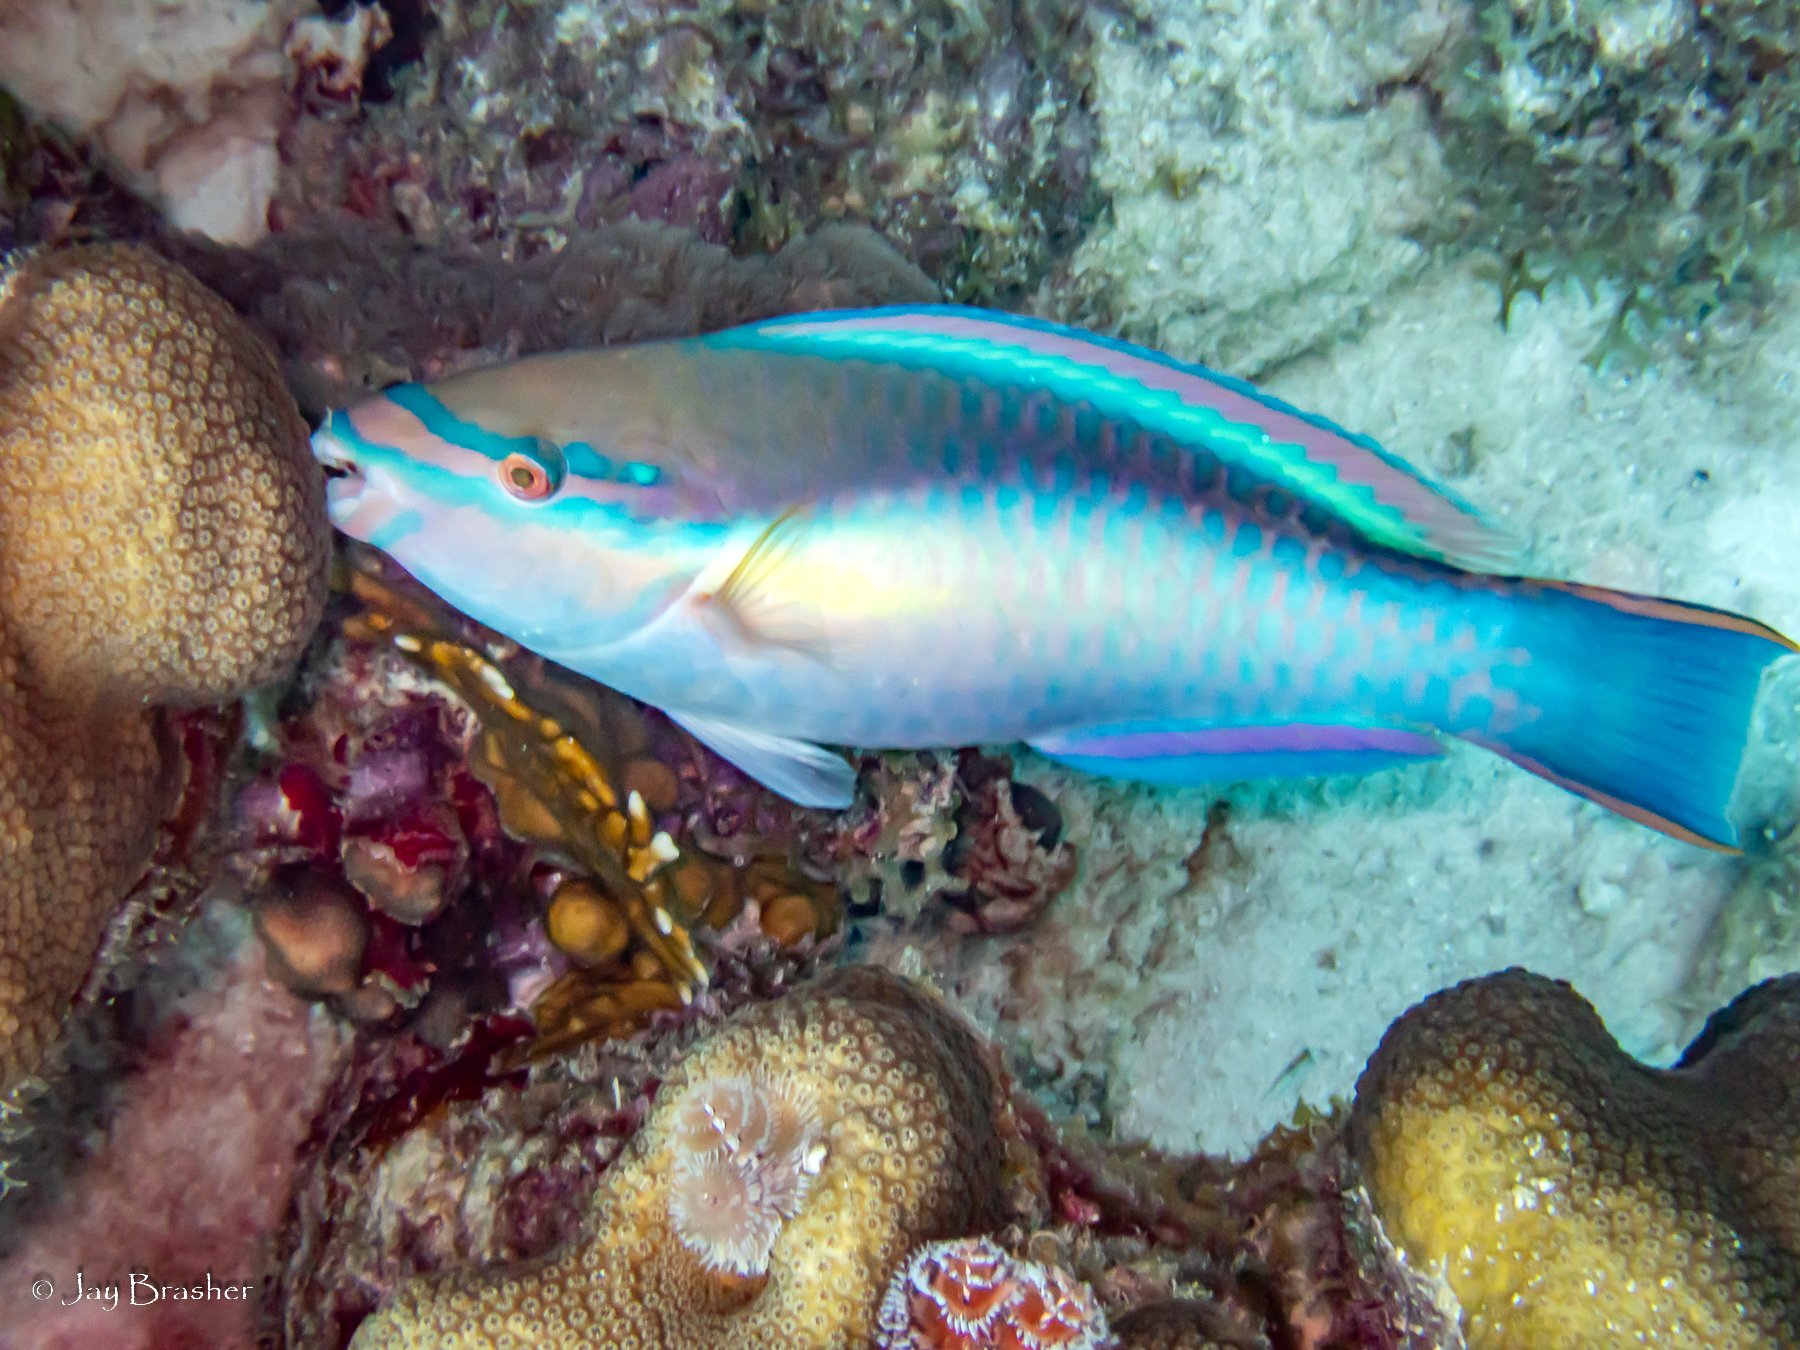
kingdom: Animalia
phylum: Chordata
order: Perciformes
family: Scaridae
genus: Scarus
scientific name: Scarus taeniopterus
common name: Princess parrotfish
